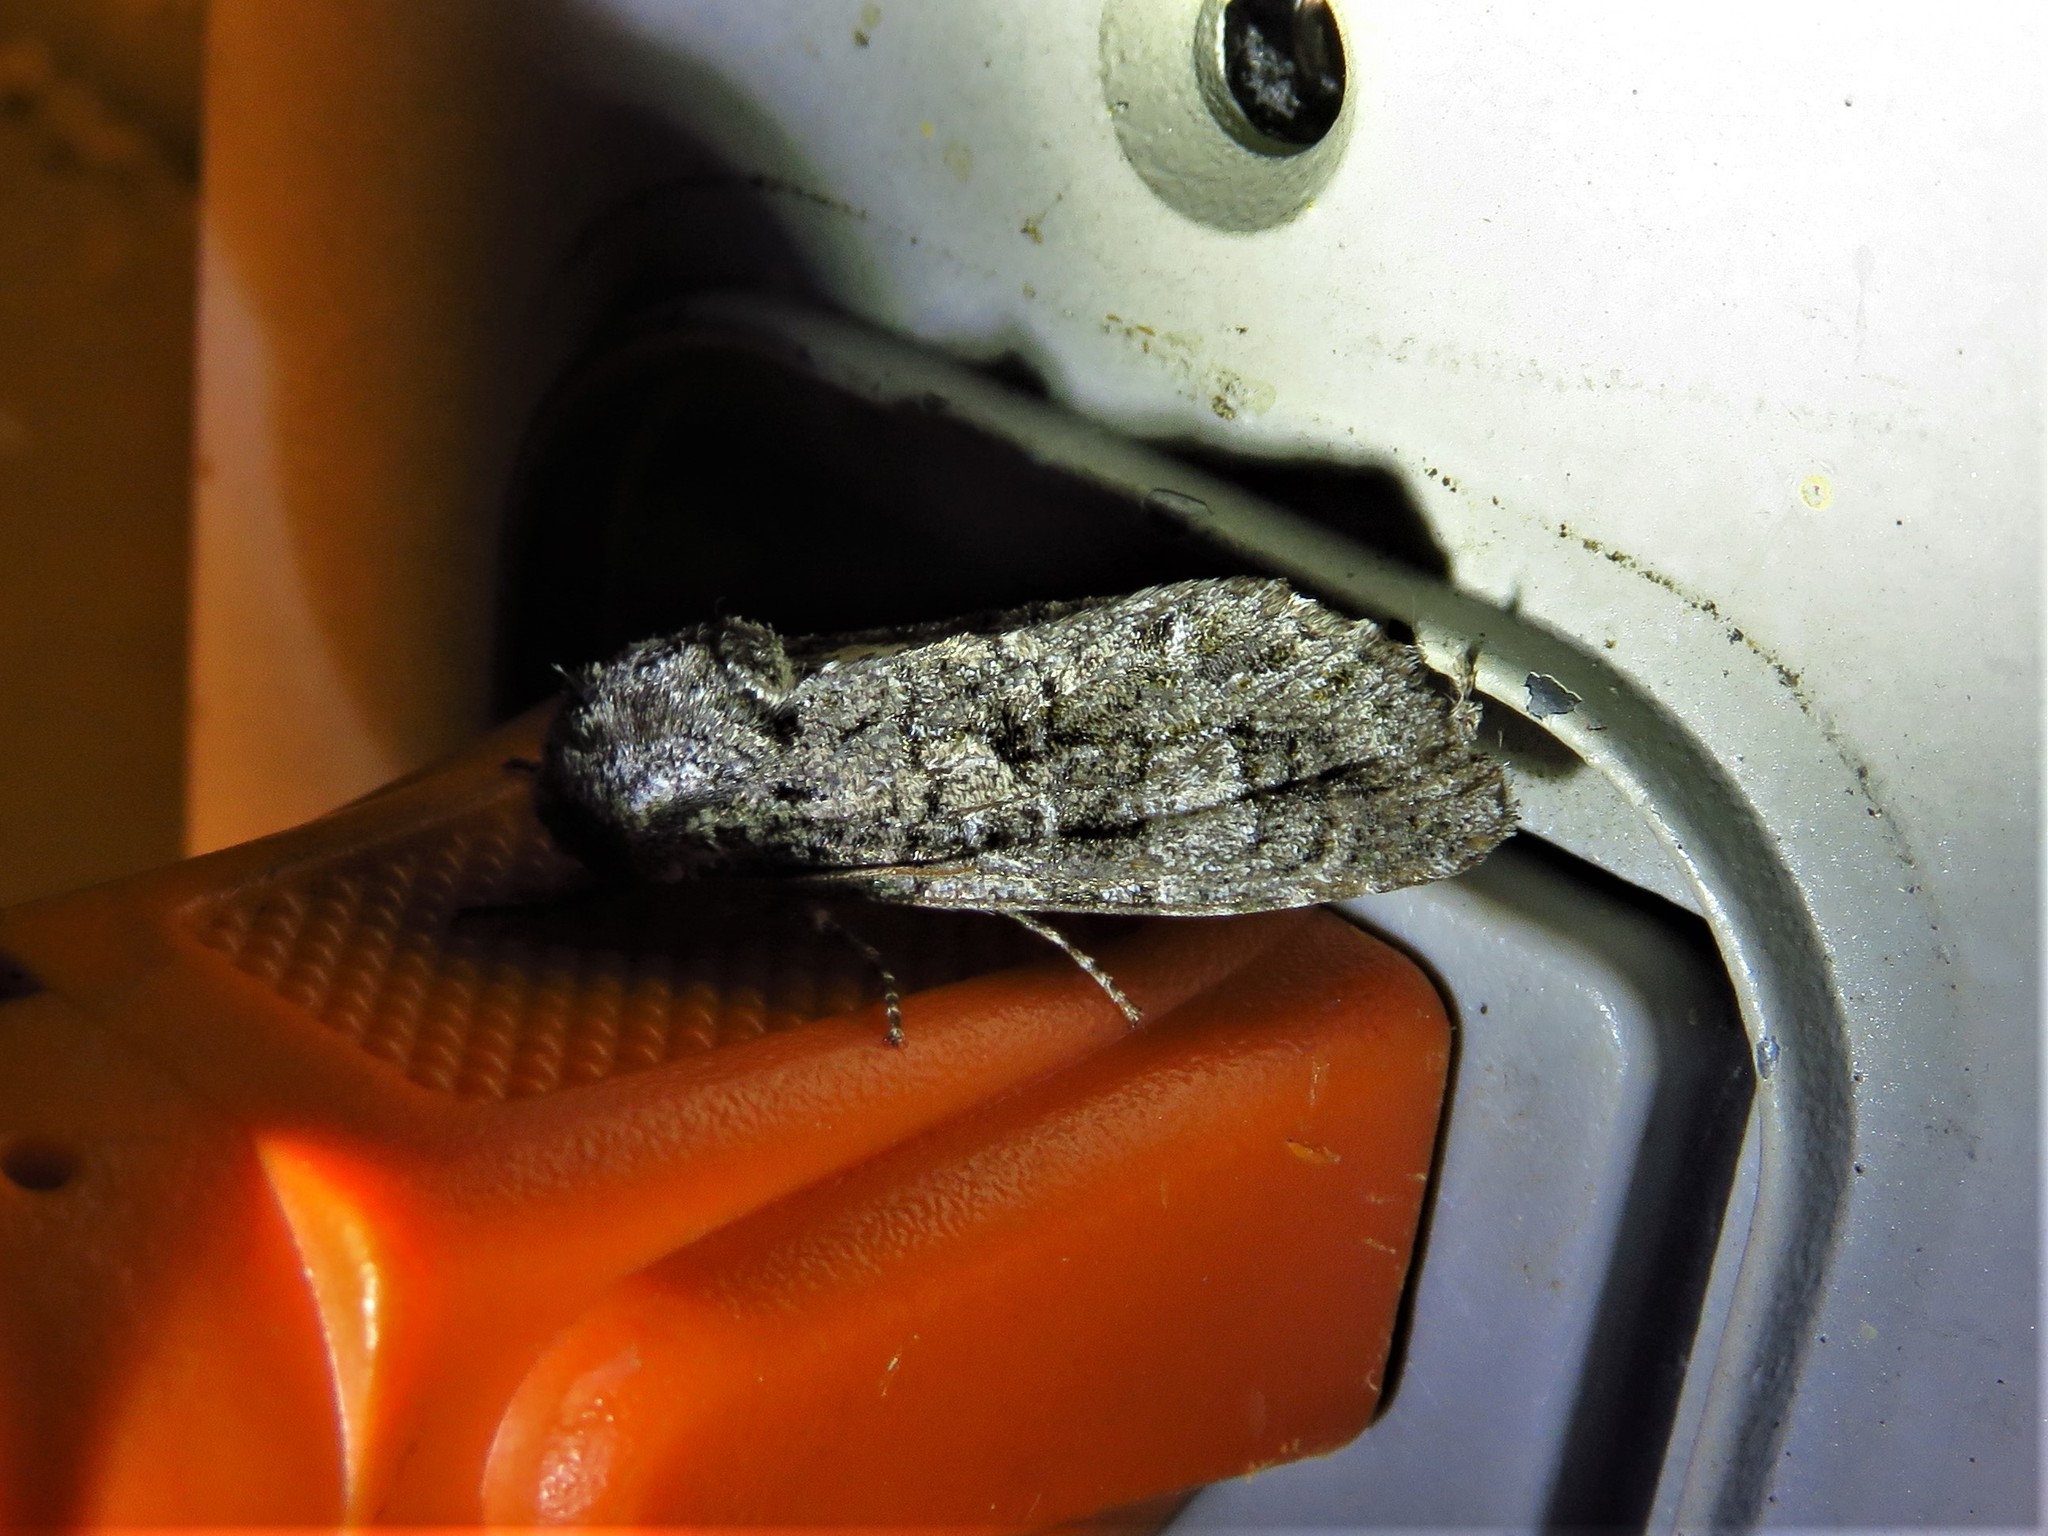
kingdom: Animalia
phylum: Arthropoda
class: Insecta
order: Lepidoptera
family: Noctuidae
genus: Psaphida
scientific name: Psaphida resumens
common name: Figure-eight sallow
